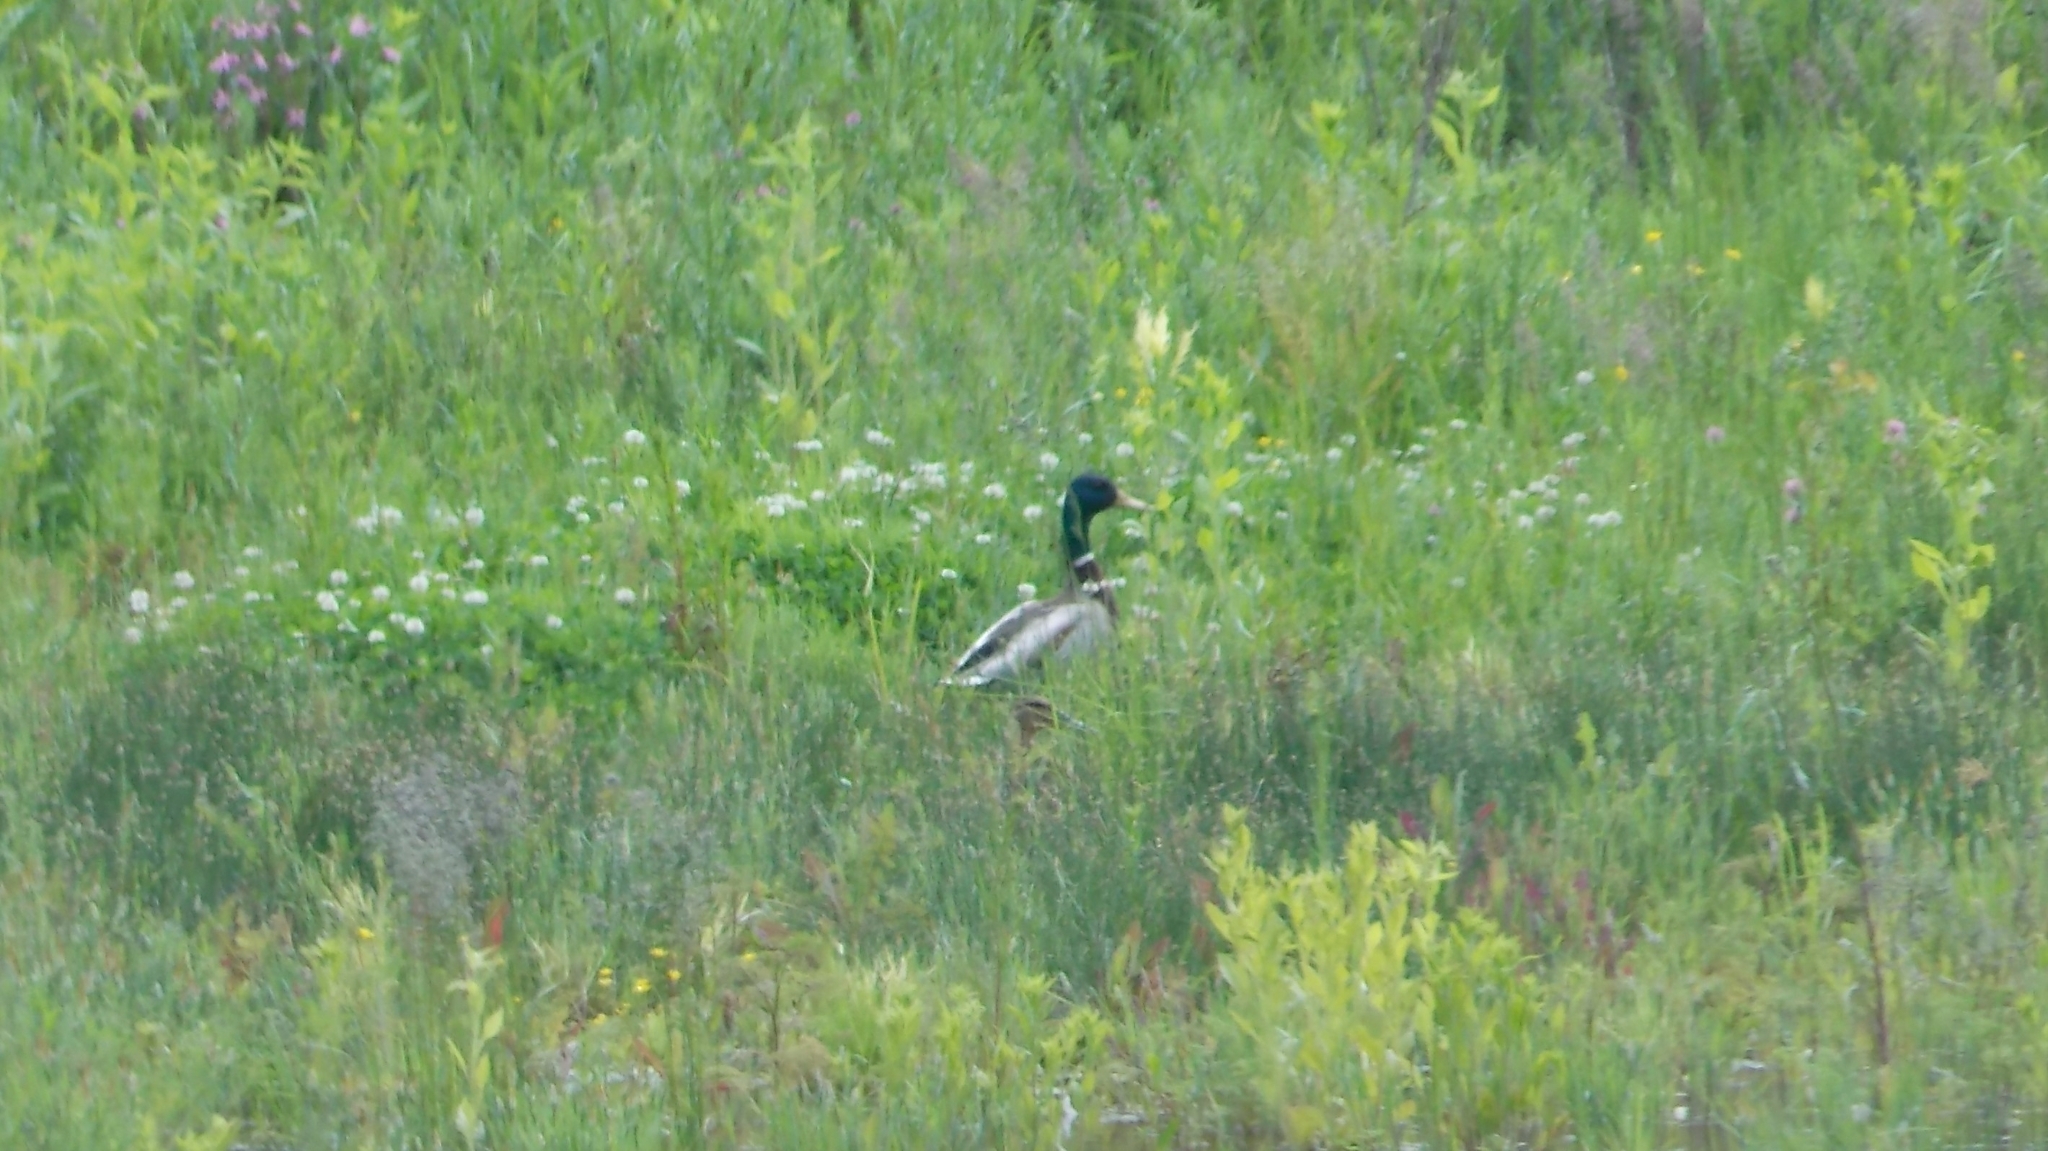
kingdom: Animalia
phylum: Chordata
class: Aves
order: Anseriformes
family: Anatidae
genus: Anas
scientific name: Anas platyrhynchos
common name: Mallard
